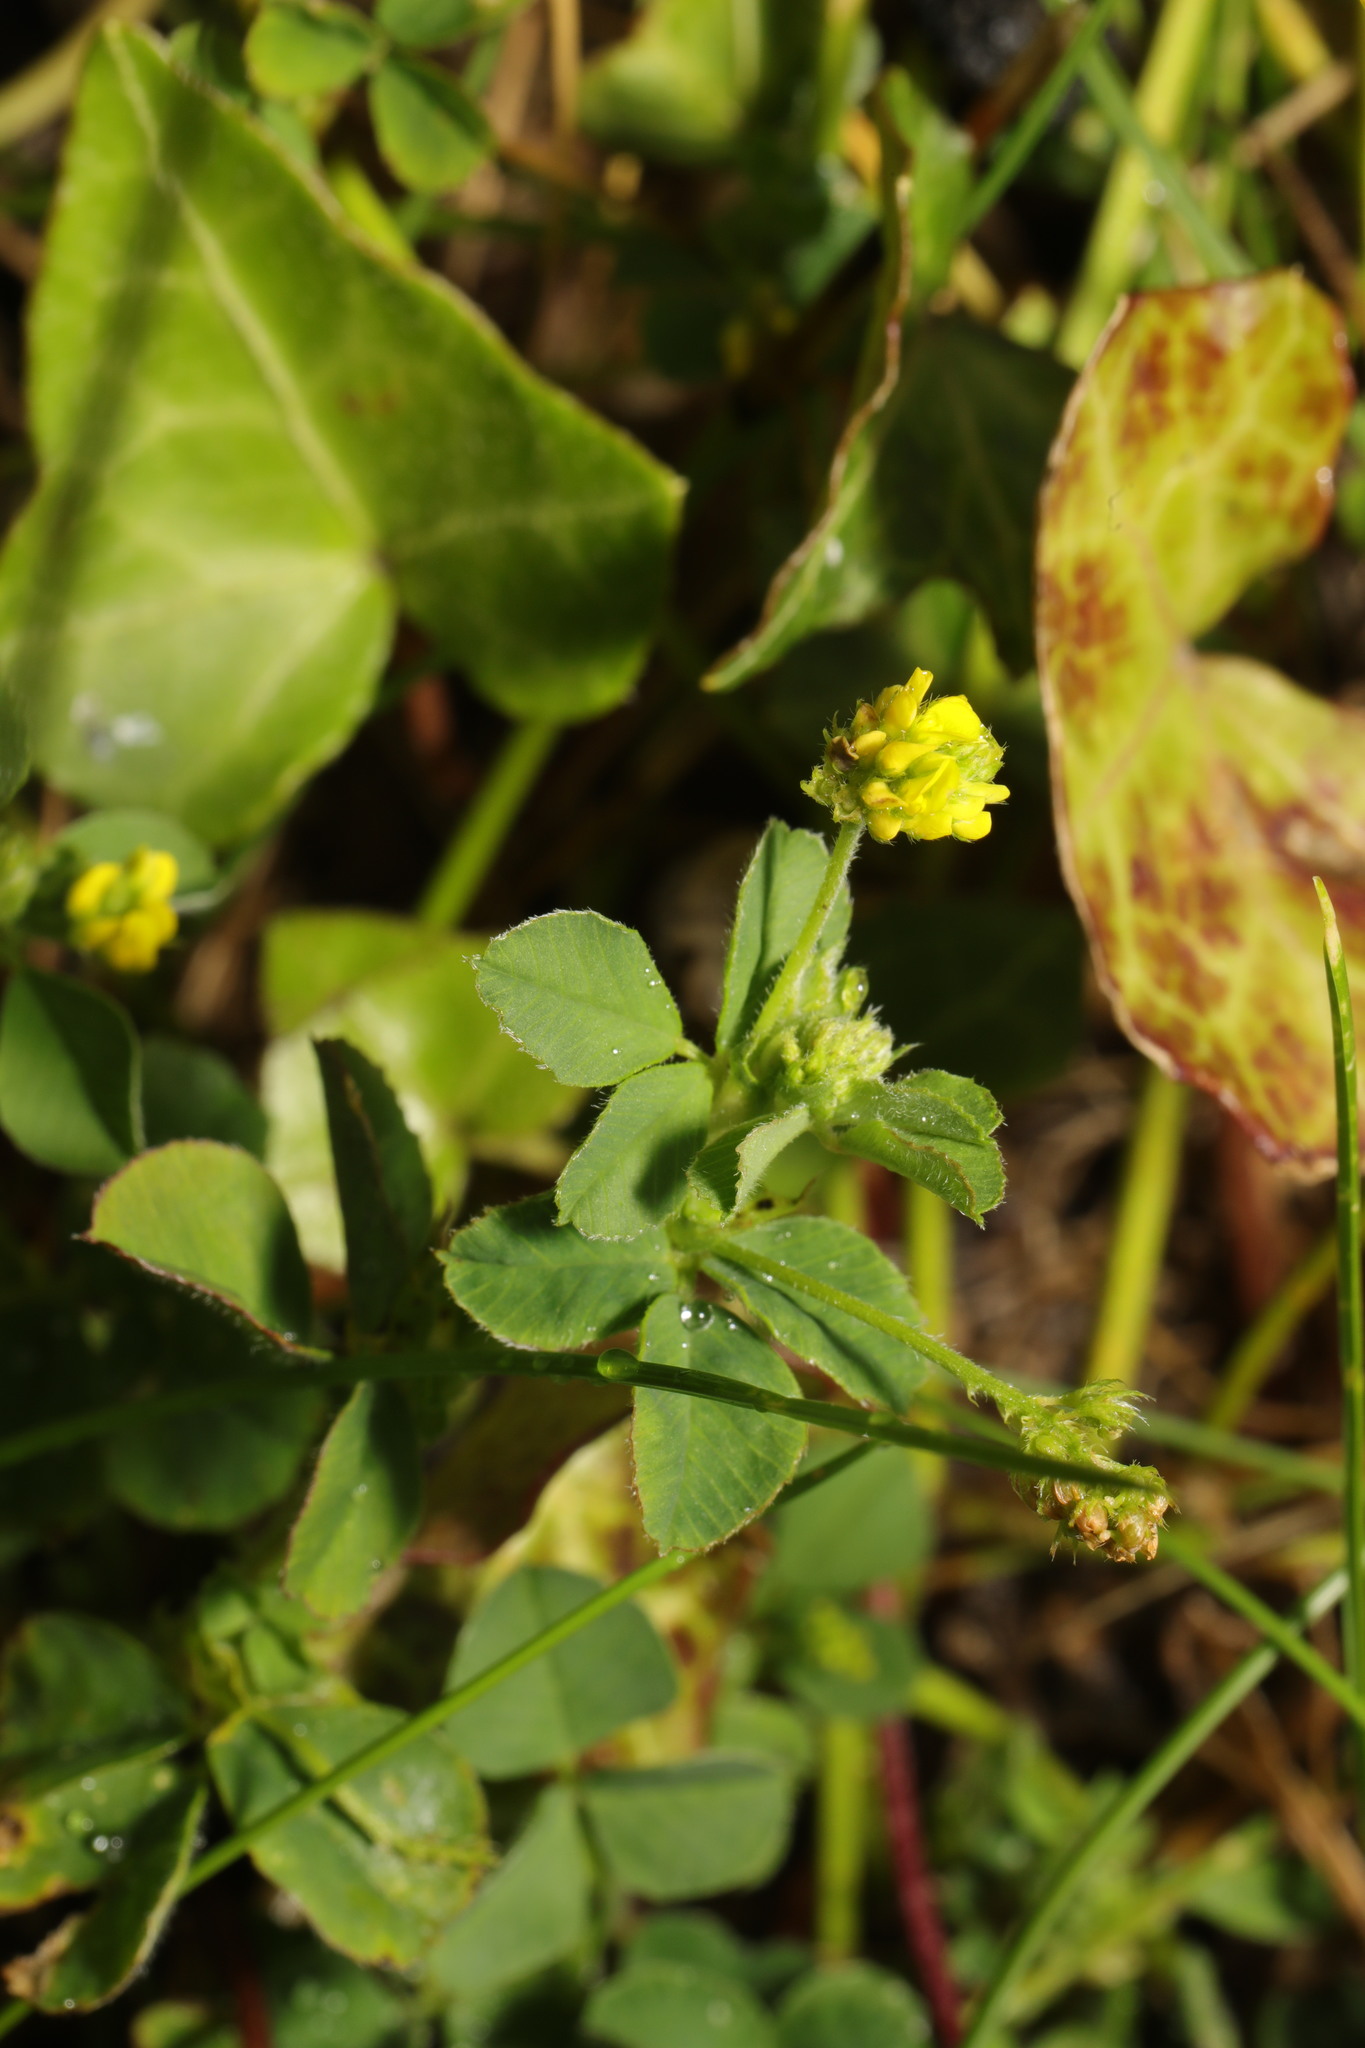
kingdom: Plantae
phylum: Tracheophyta
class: Magnoliopsida
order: Fabales
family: Fabaceae
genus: Medicago
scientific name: Medicago lupulina
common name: Black medick
